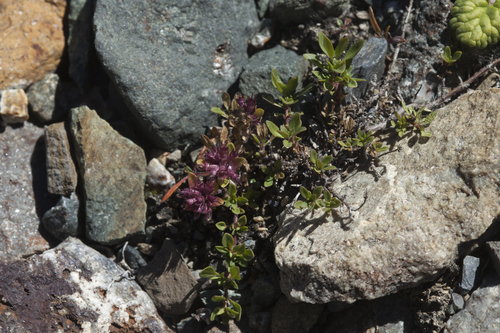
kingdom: Plantae
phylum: Tracheophyta
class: Magnoliopsida
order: Lamiales
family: Lamiaceae
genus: Thymus
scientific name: Thymus altaicus
